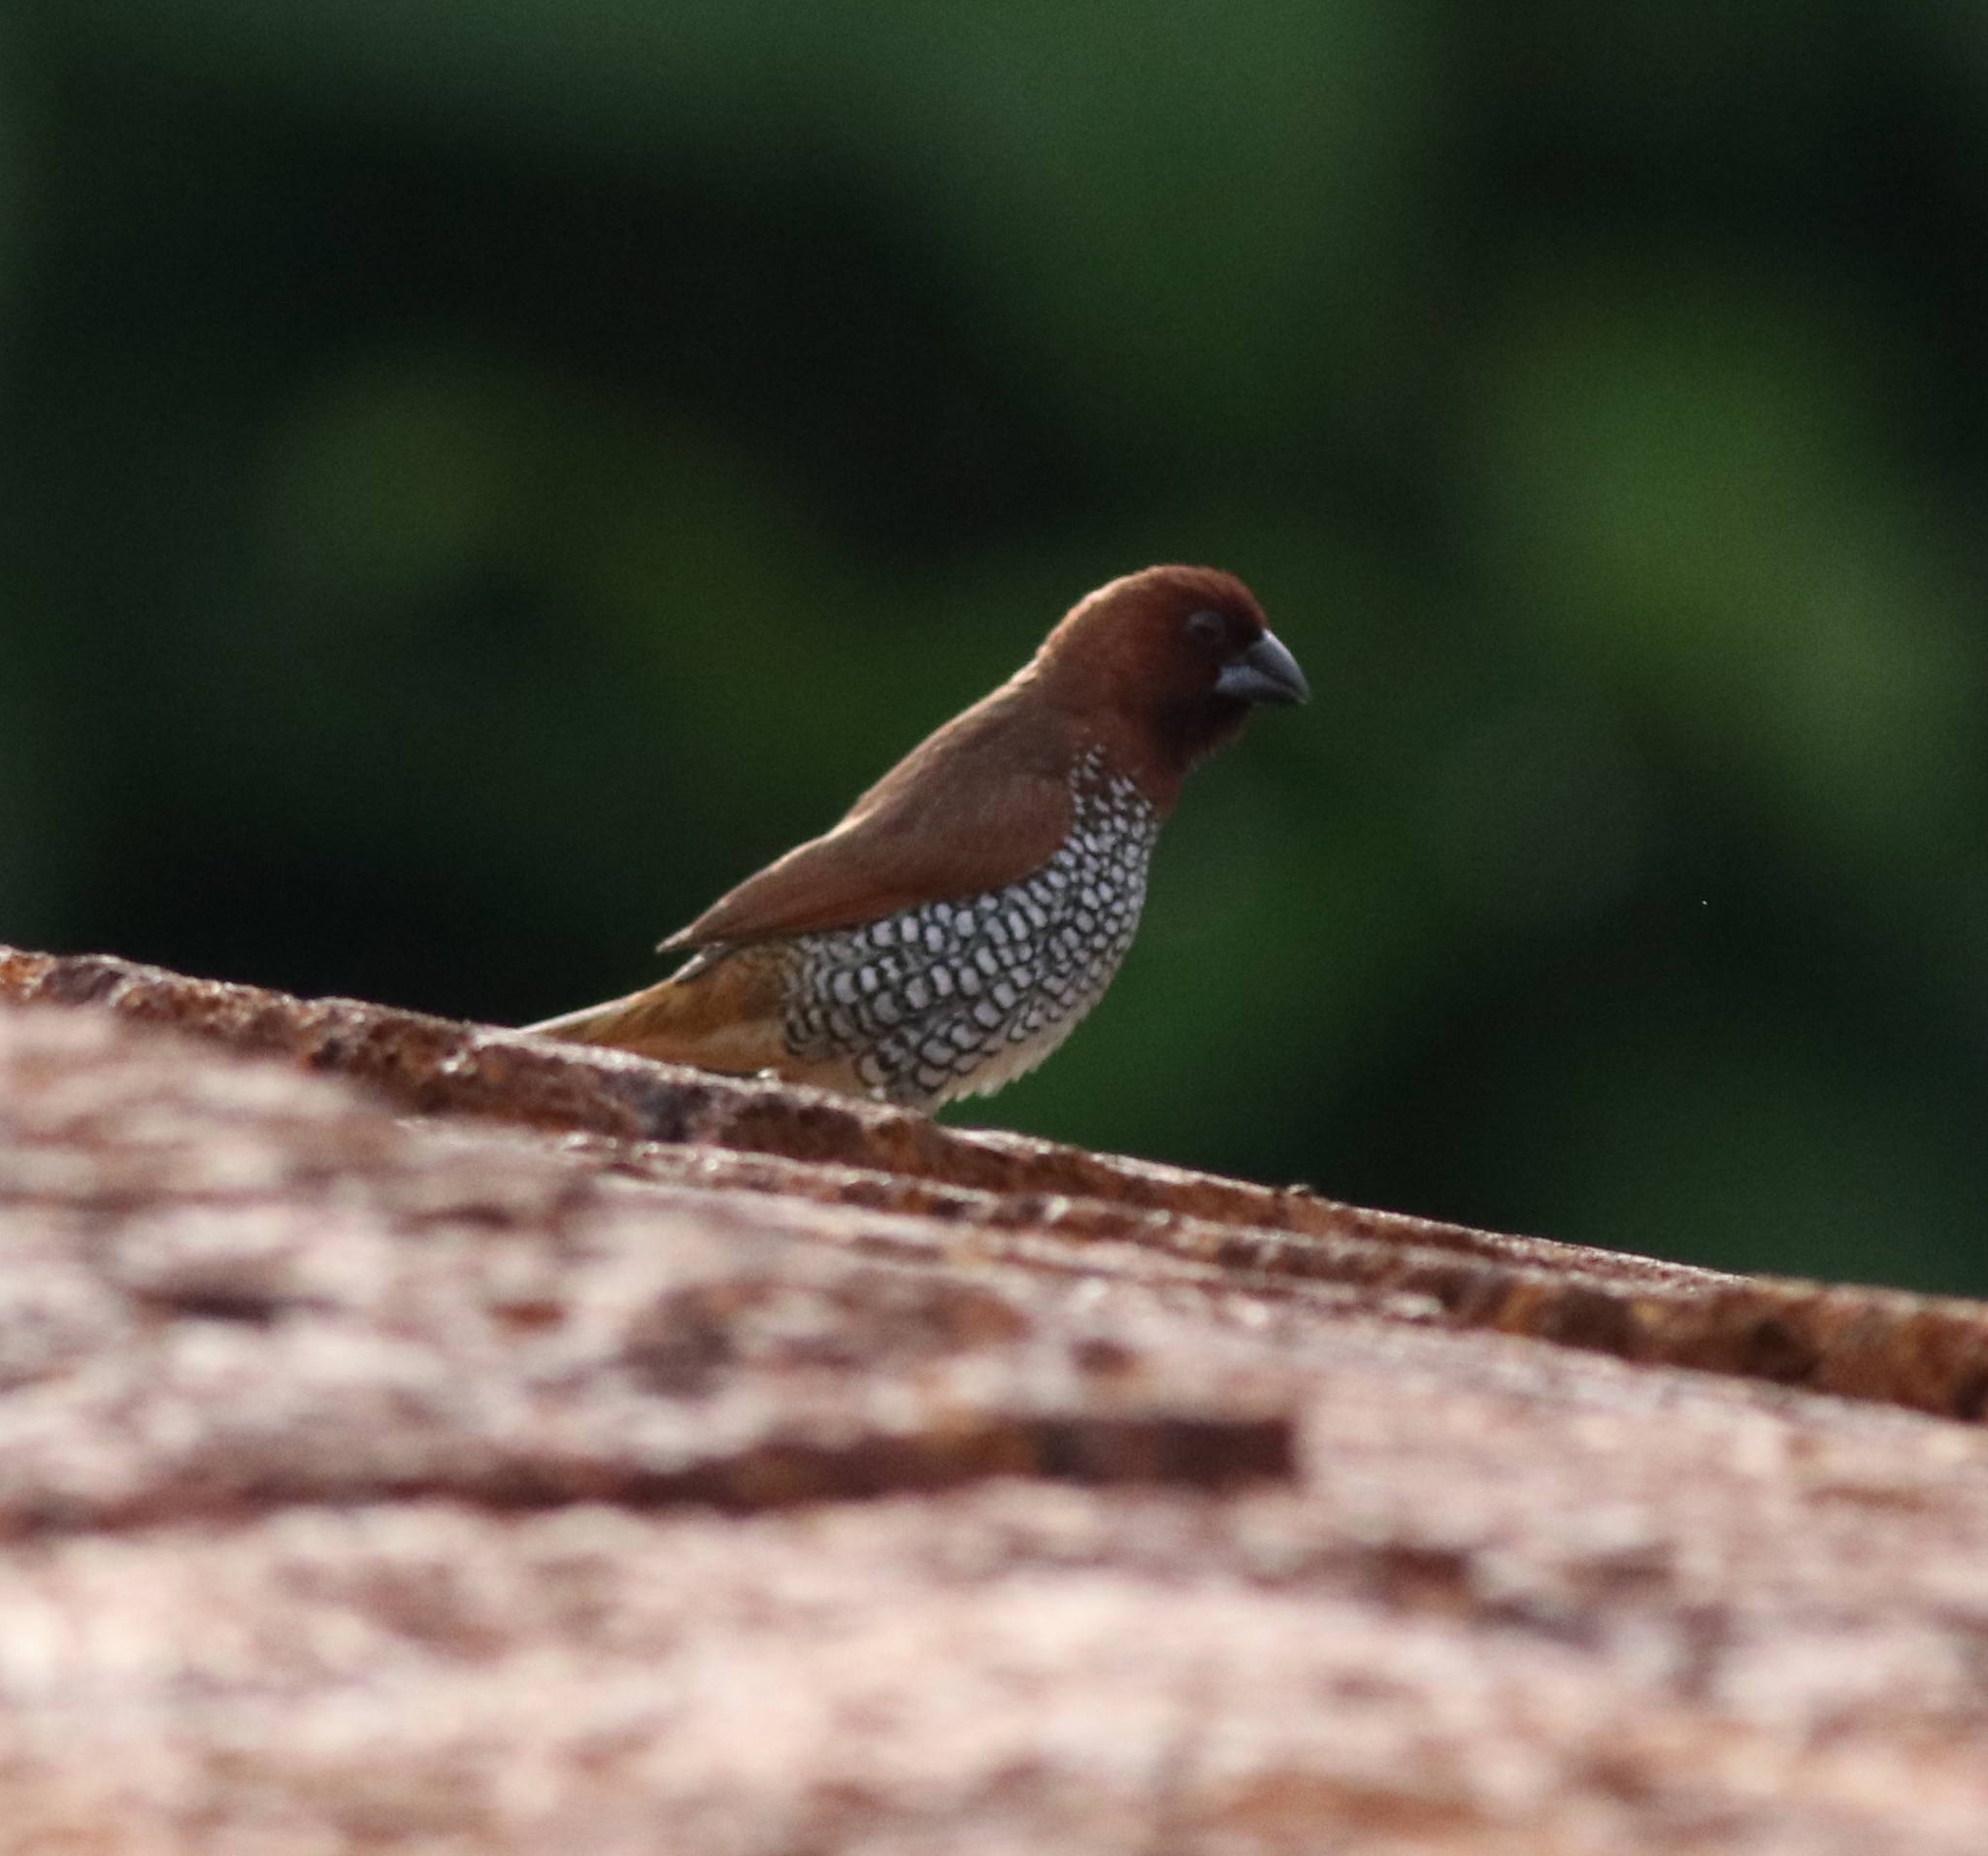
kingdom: Animalia
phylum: Chordata
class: Aves
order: Passeriformes
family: Estrildidae
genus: Lonchura
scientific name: Lonchura punctulata
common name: Scaly-breasted munia
